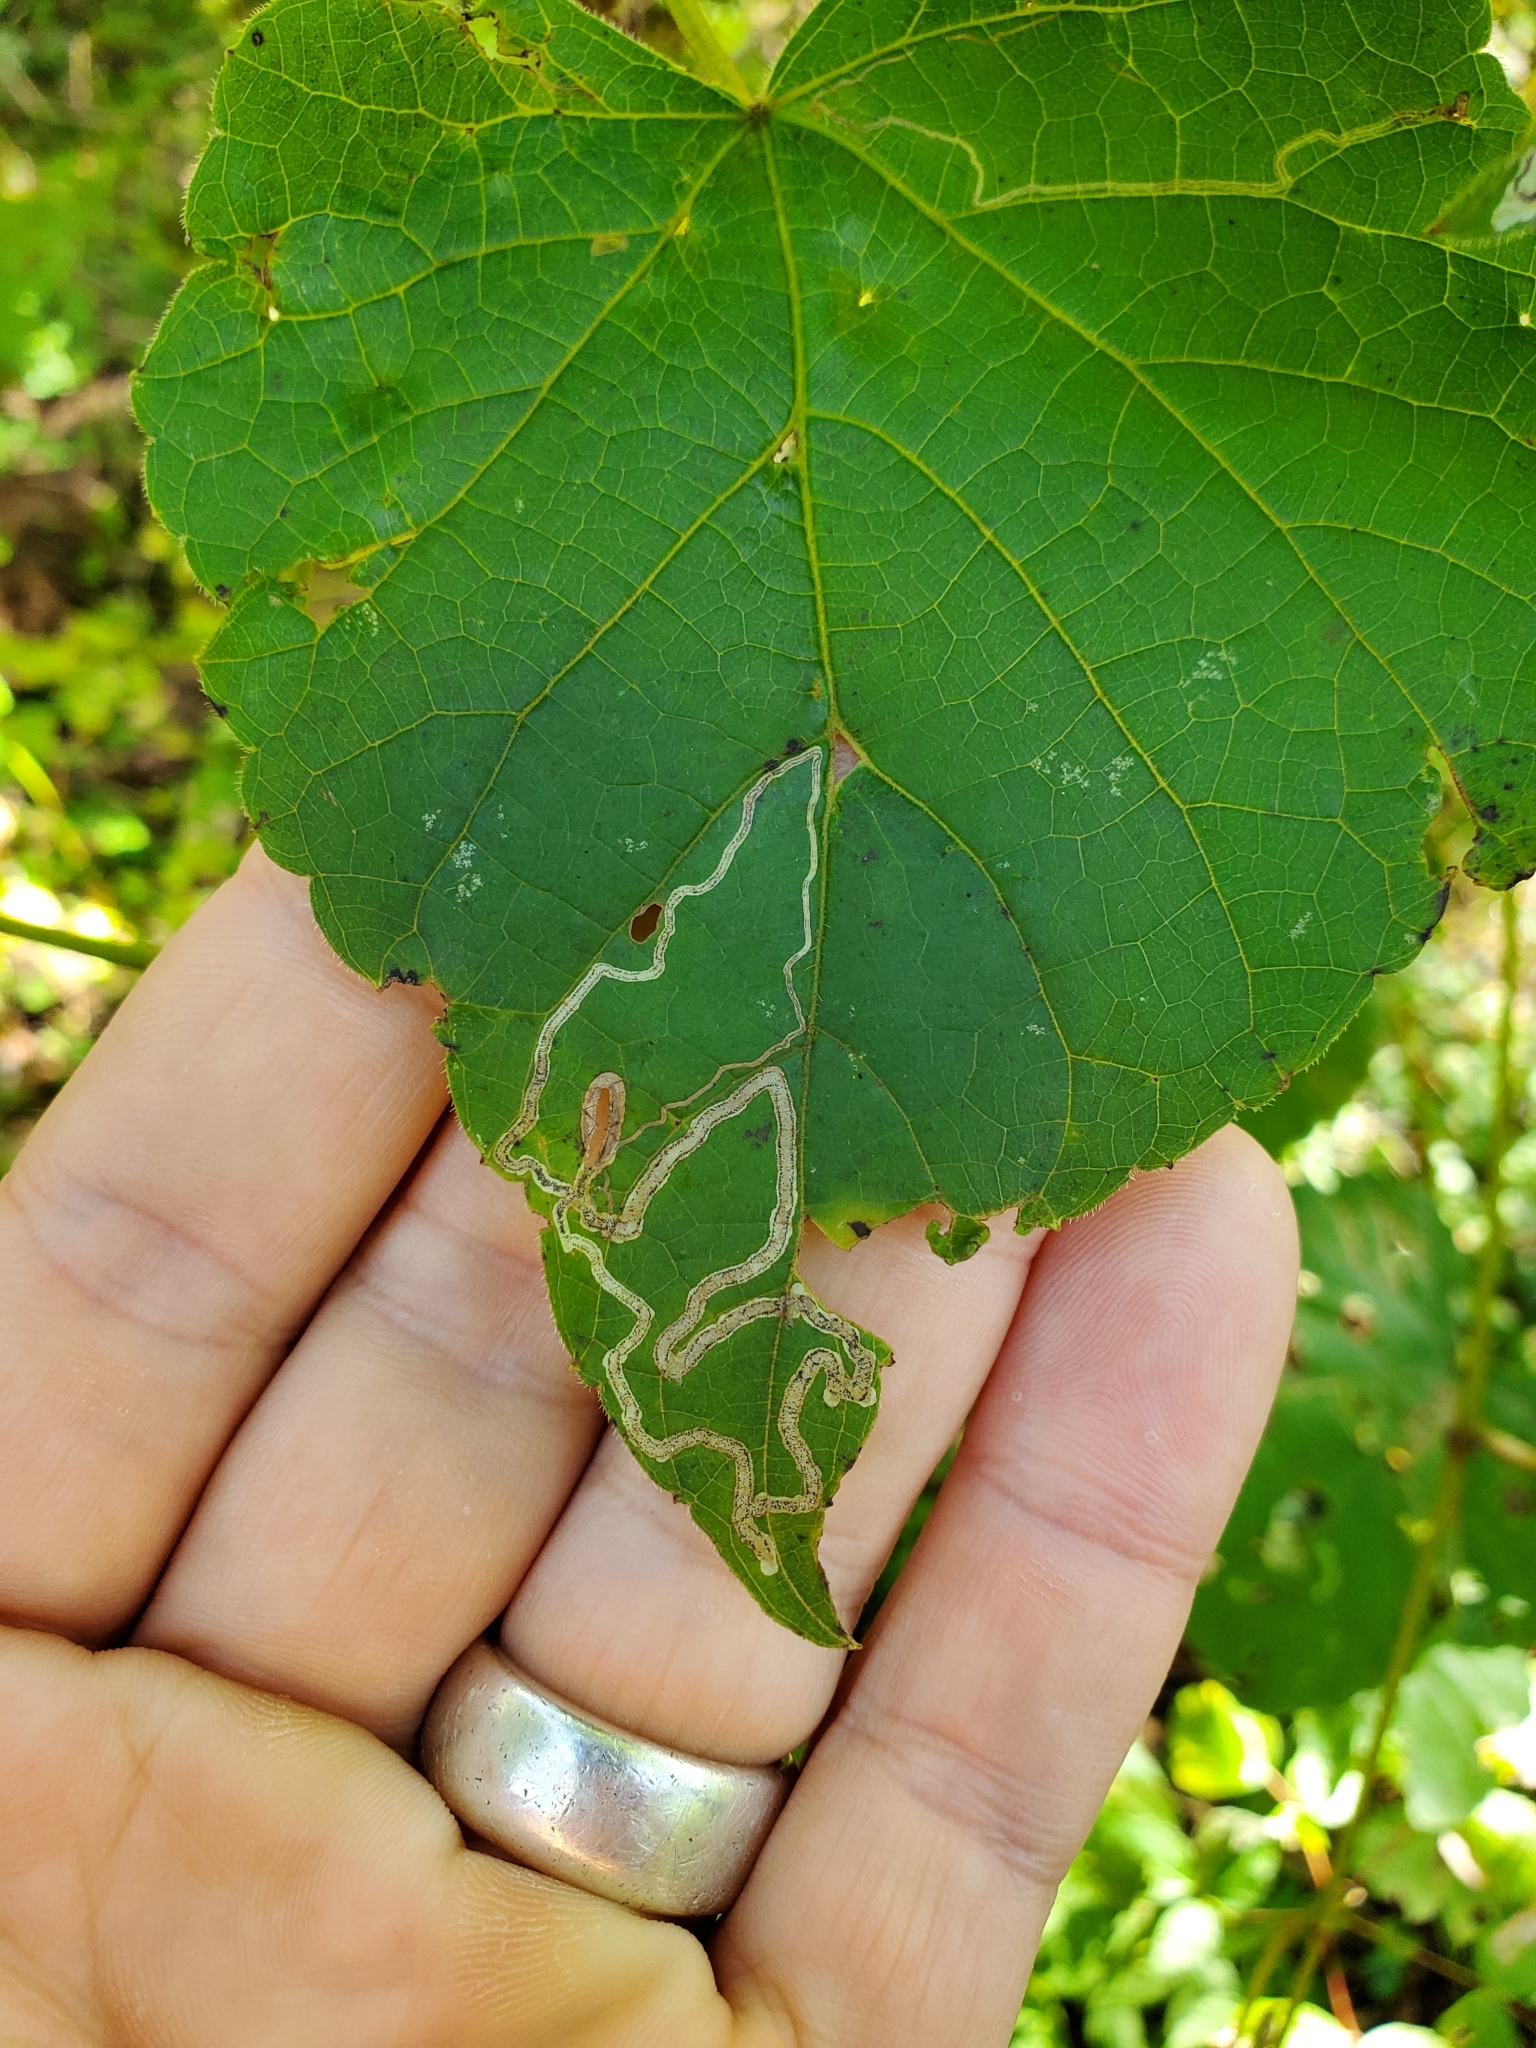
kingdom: Animalia
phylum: Arthropoda
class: Insecta
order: Lepidoptera
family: Gracillariidae
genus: Phyllocnistis
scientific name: Phyllocnistis vitifoliella
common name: Grape leaf-miner moth
